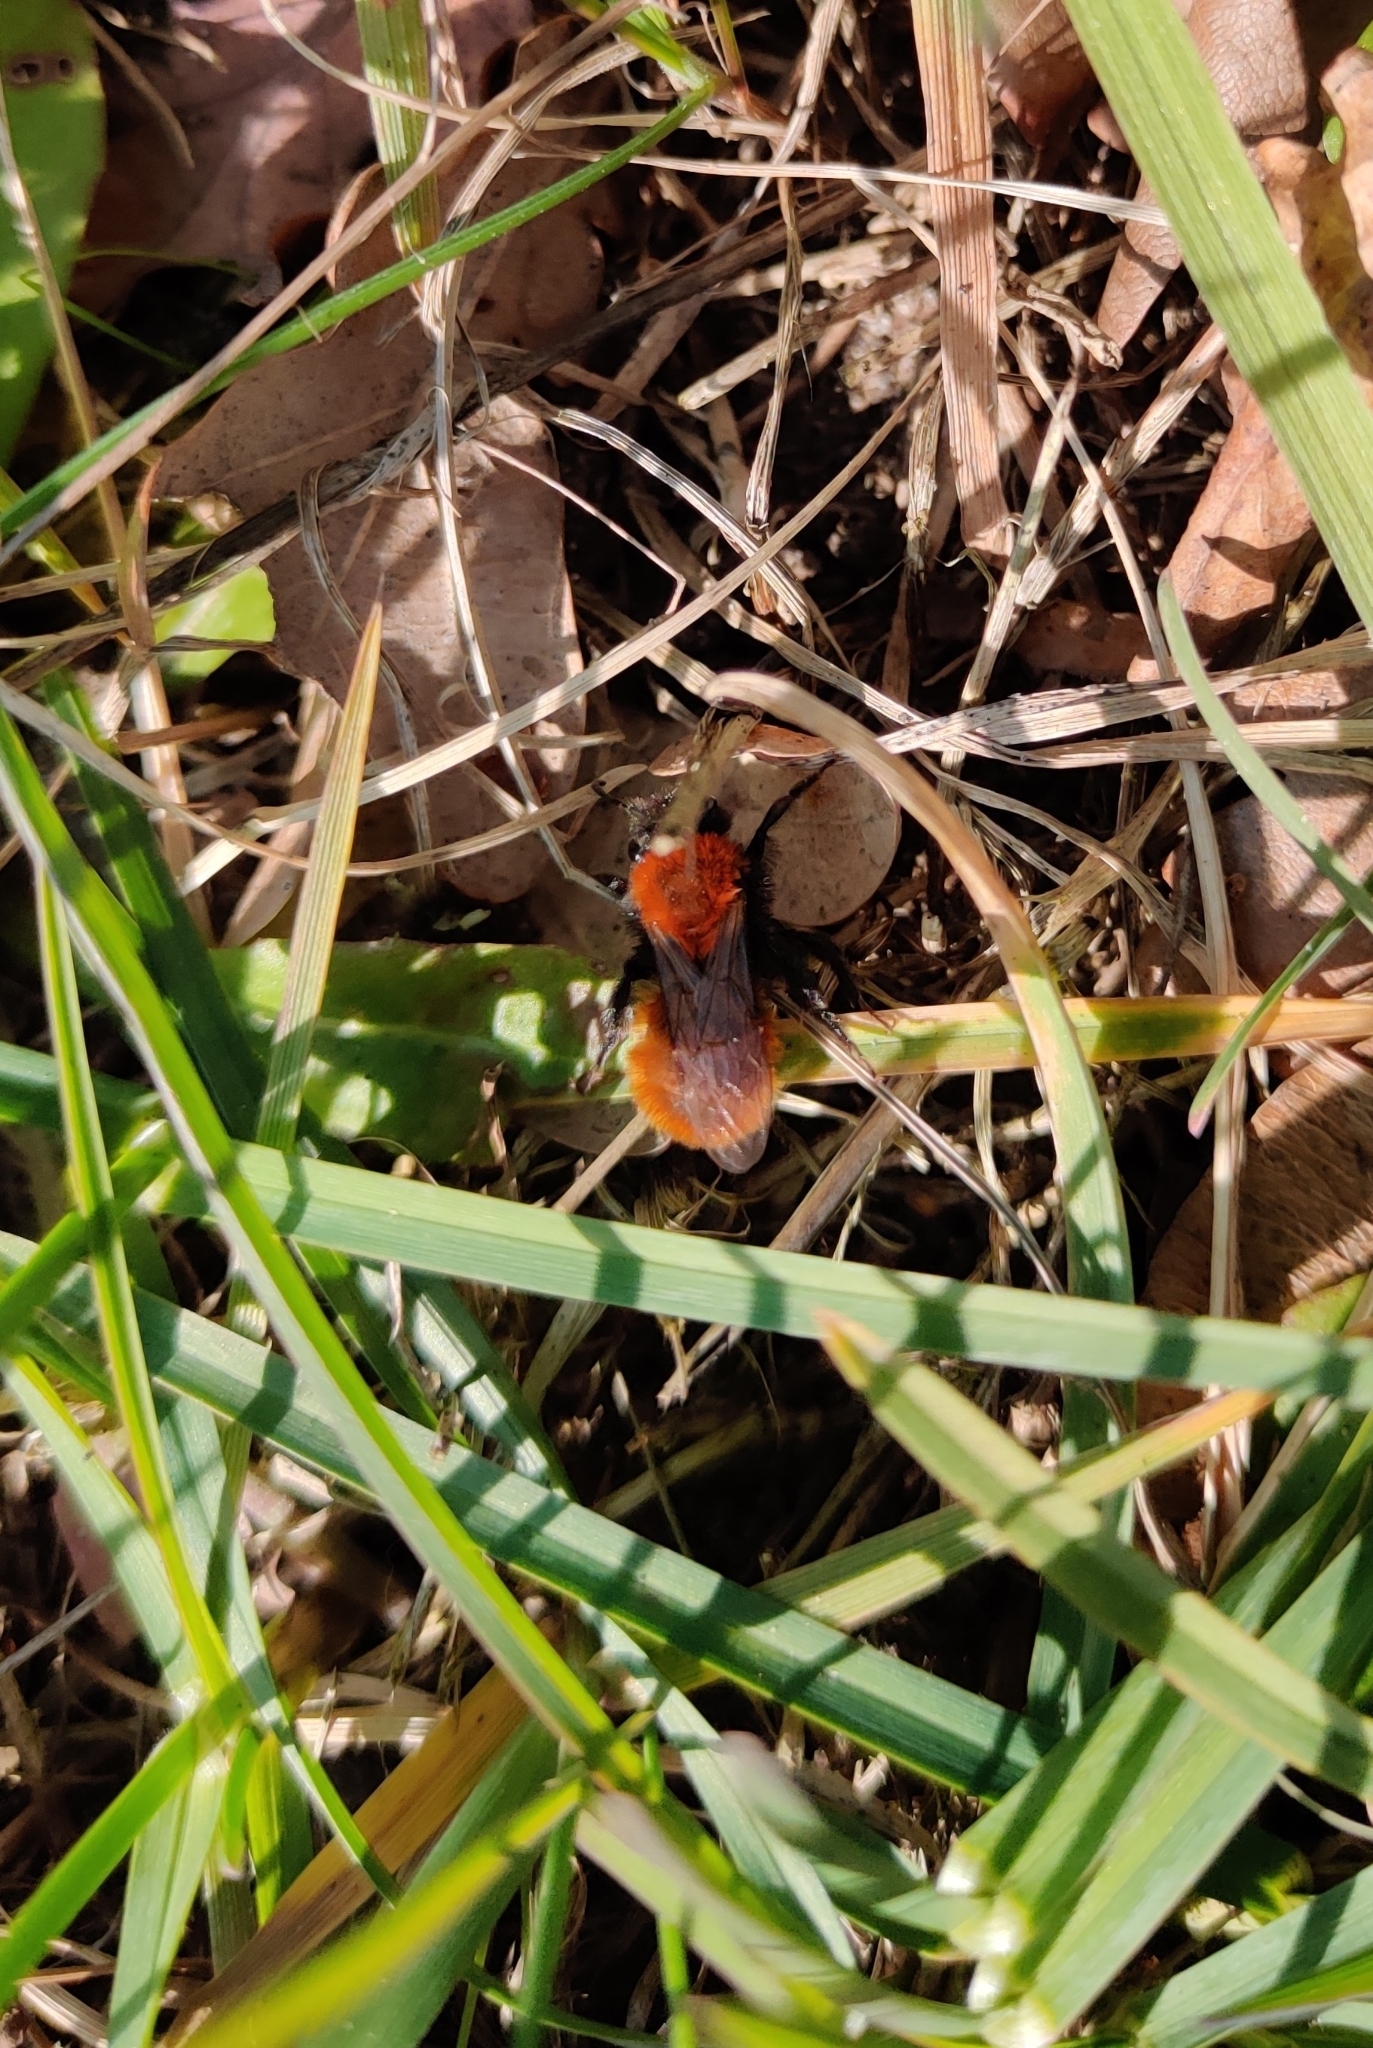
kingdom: Animalia
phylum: Arthropoda
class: Insecta
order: Hymenoptera
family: Andrenidae
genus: Andrena
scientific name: Andrena fulva
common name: Tawny mining bee
